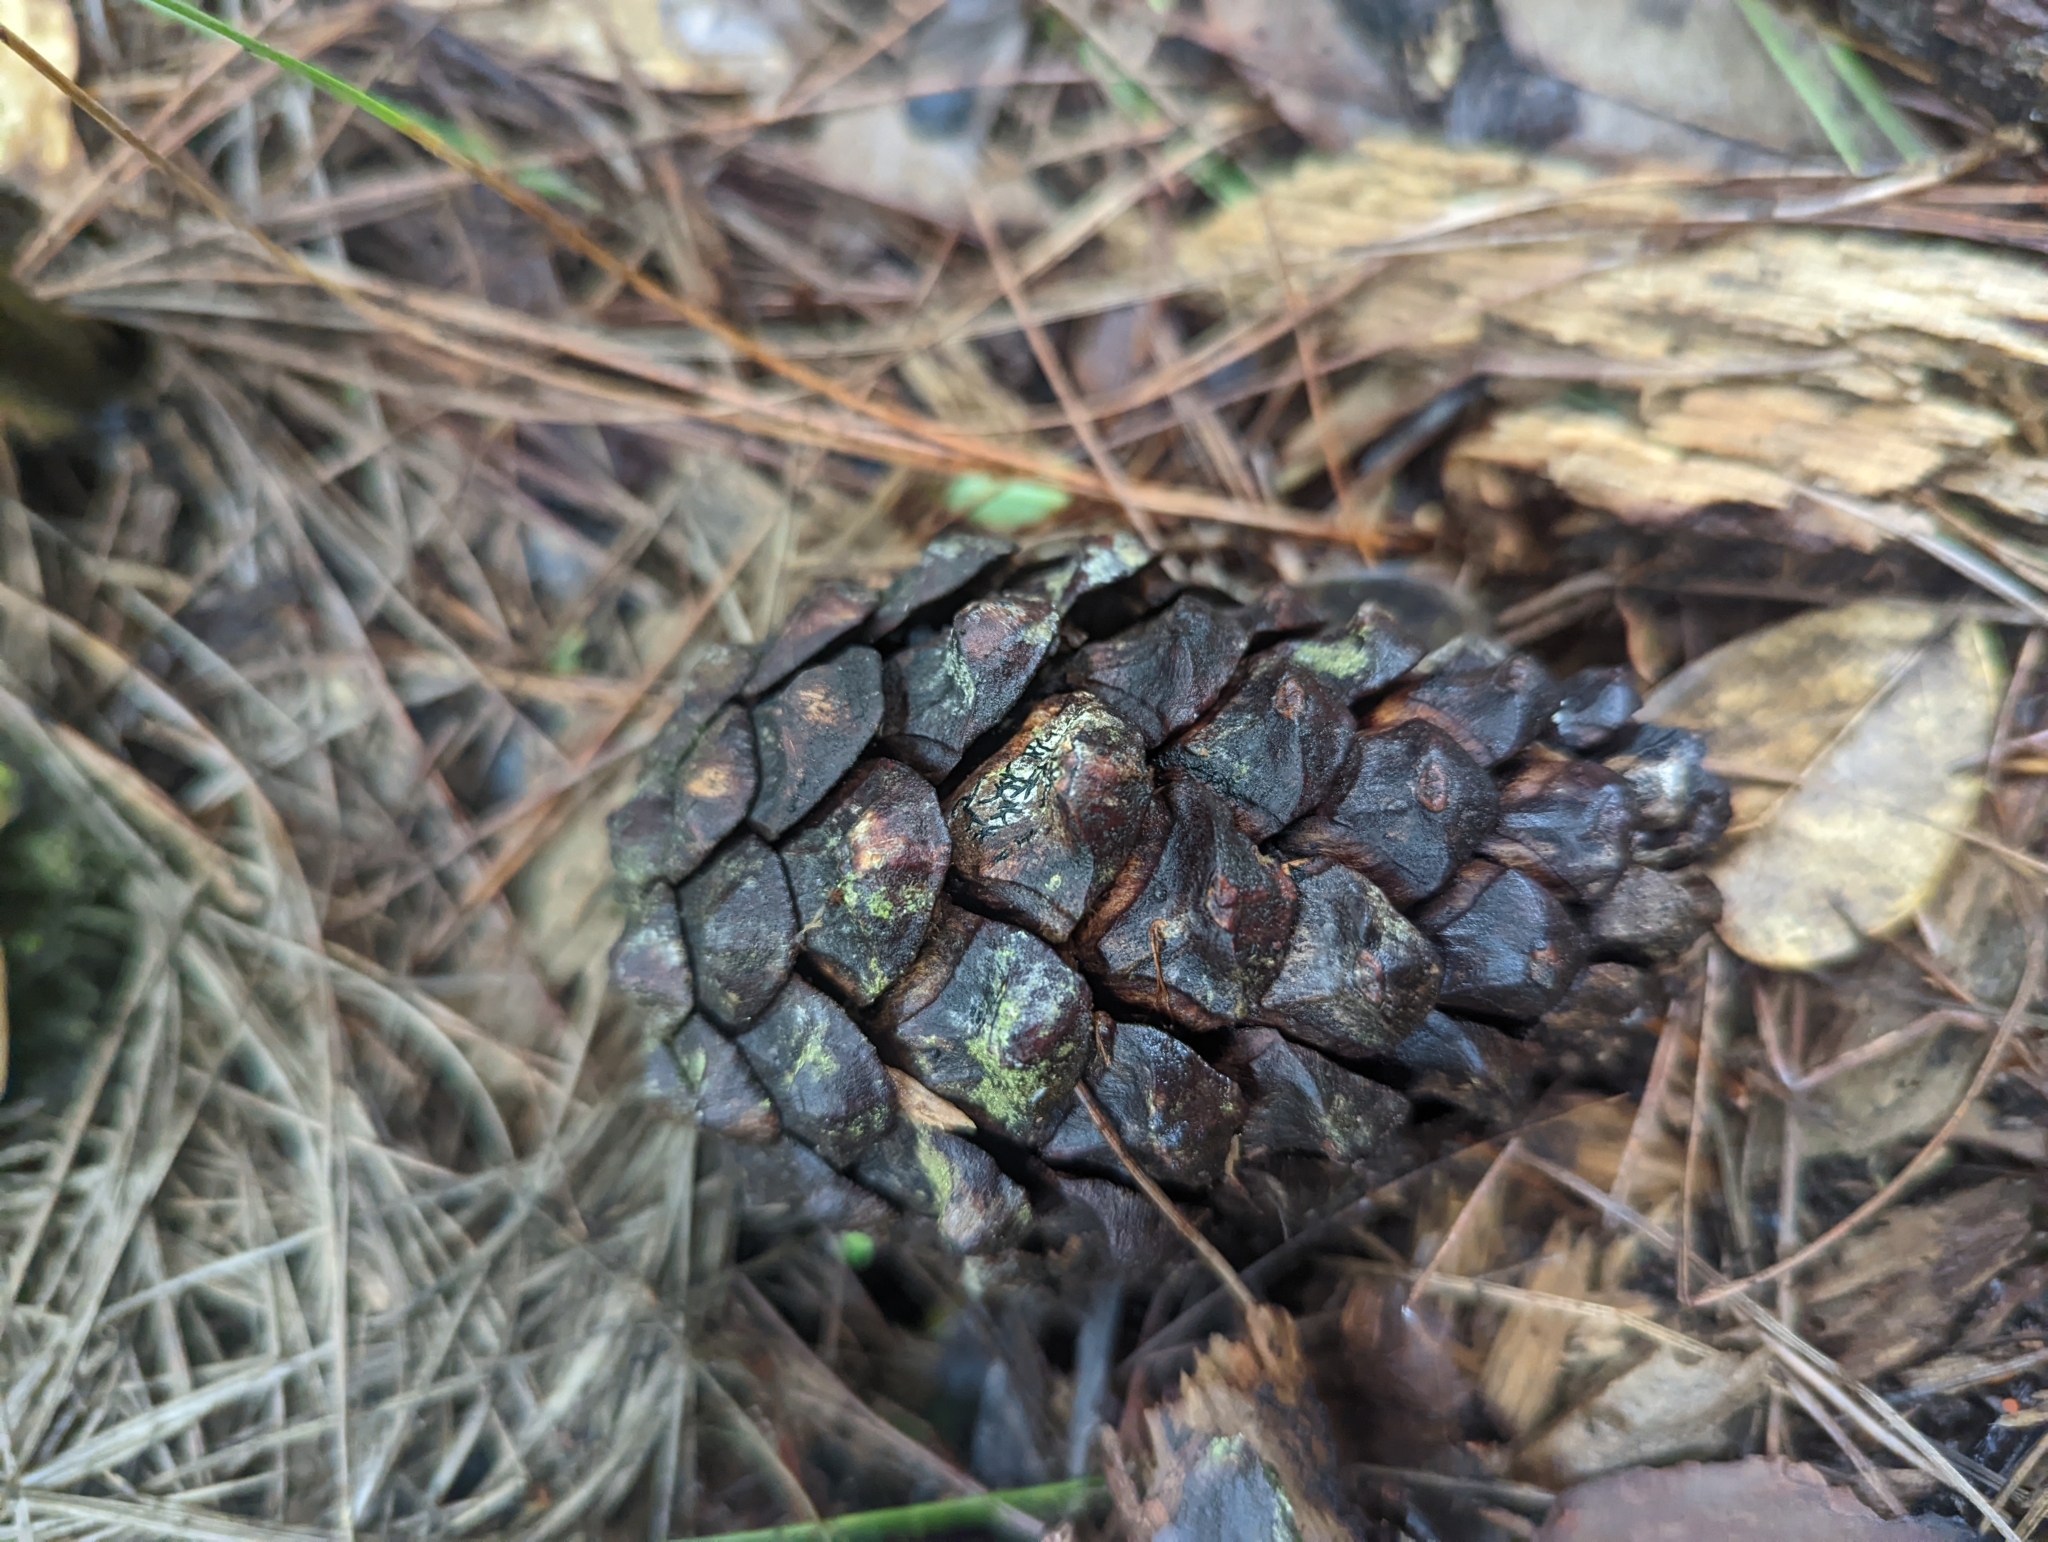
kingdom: Plantae
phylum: Tracheophyta
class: Pinopsida
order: Pinales
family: Pinaceae
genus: Pinus
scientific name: Pinus kesiya
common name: Benguet pine
